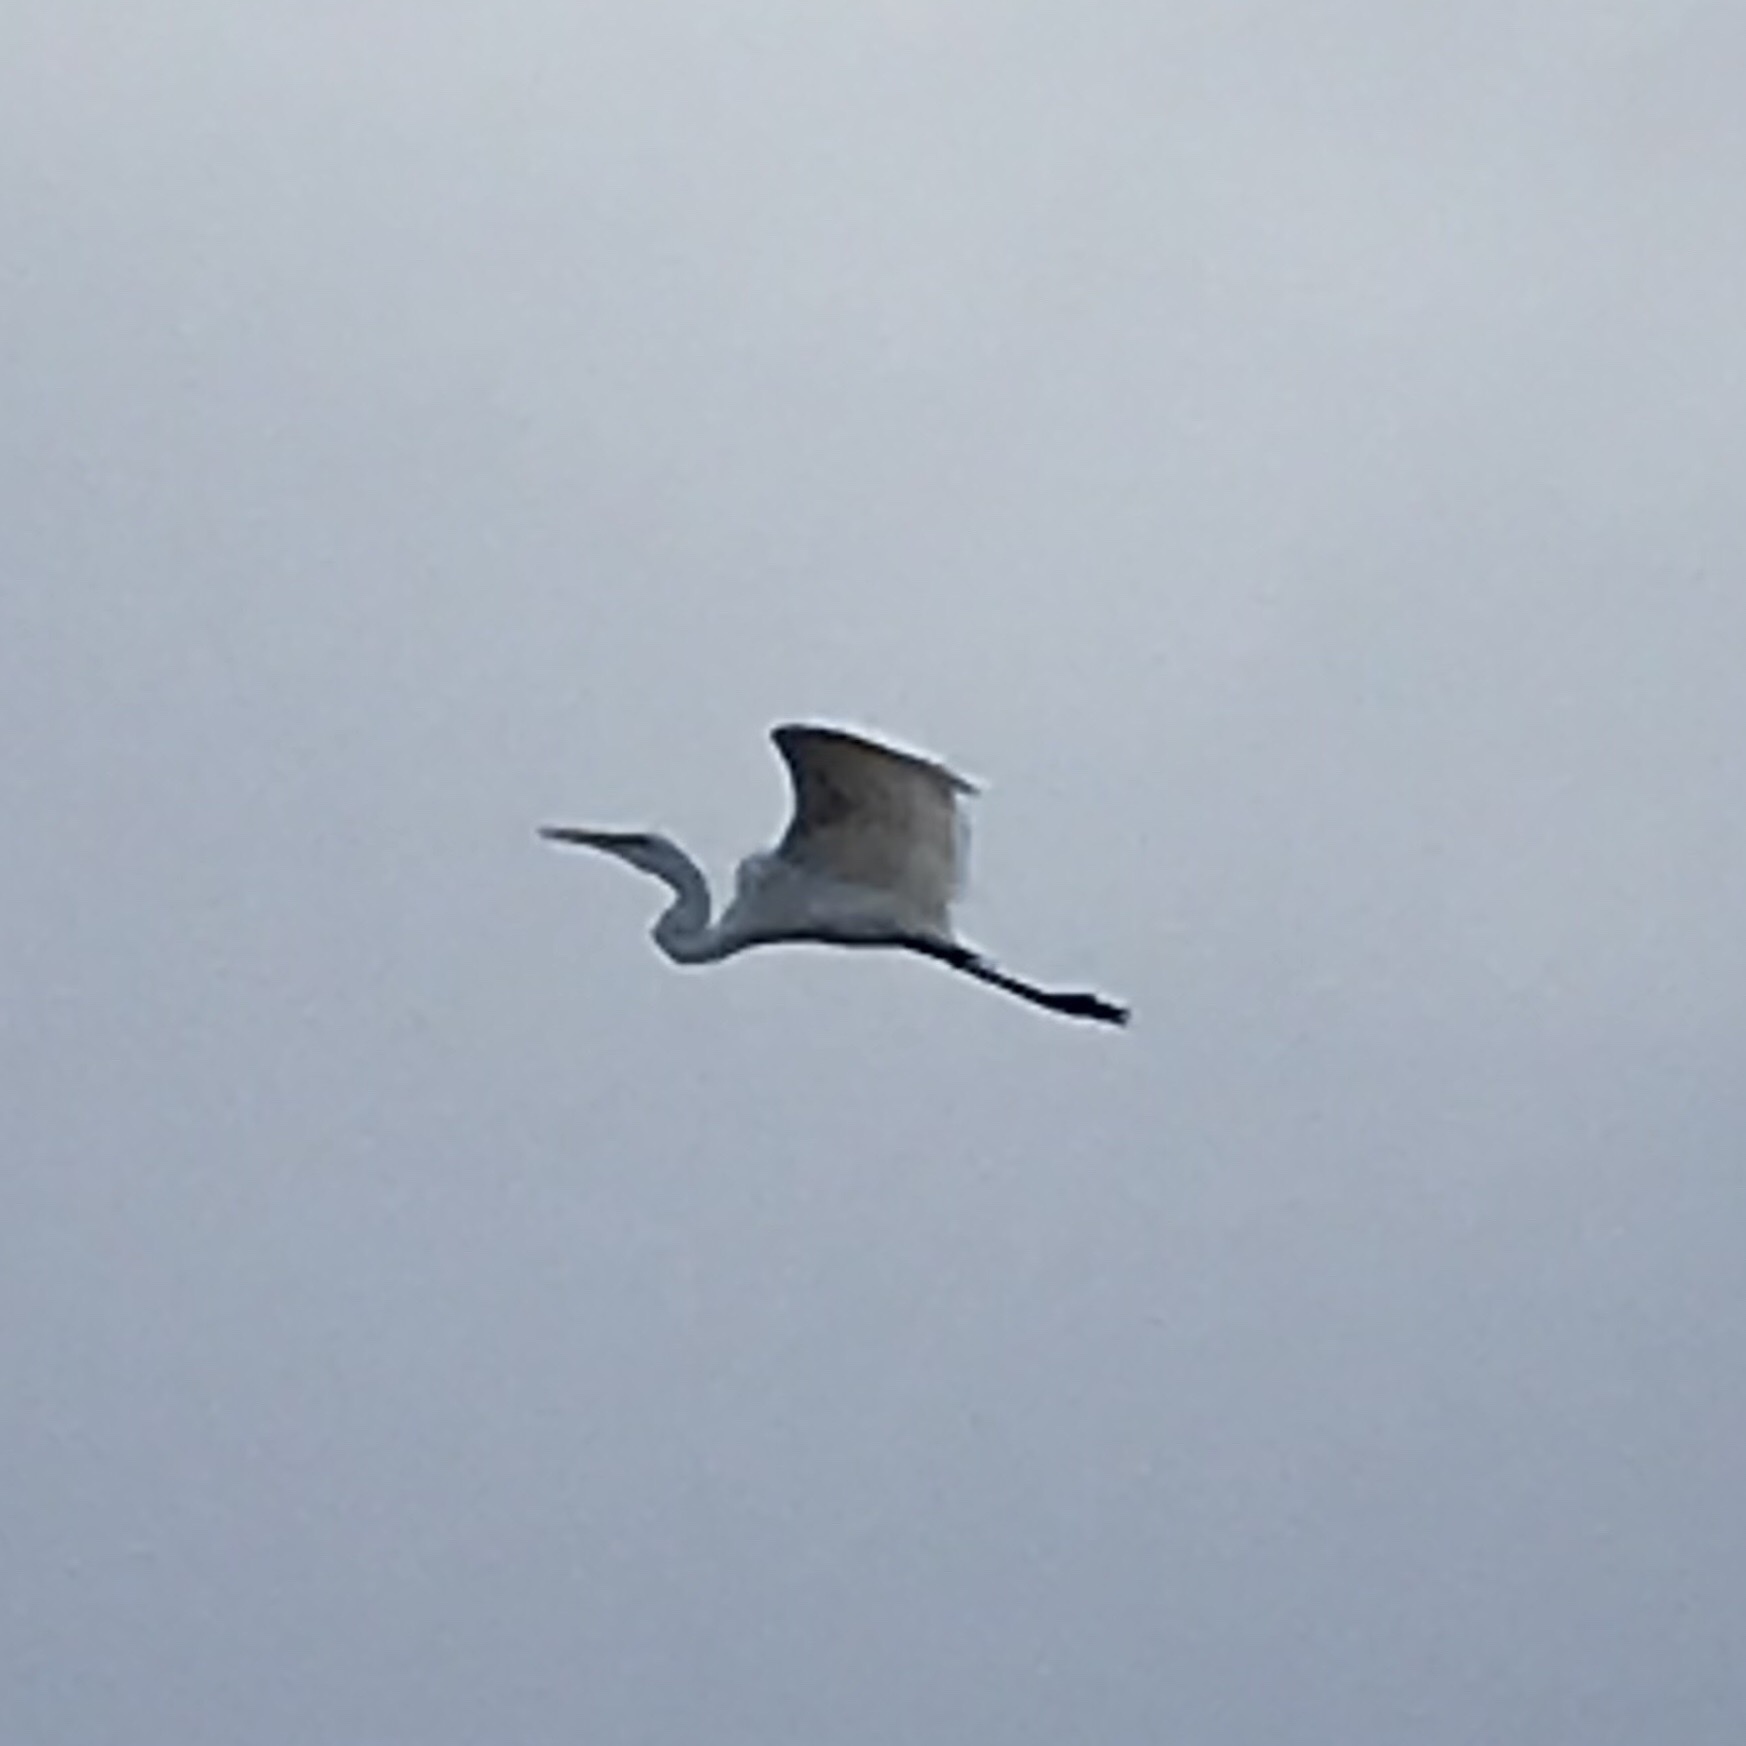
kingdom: Animalia
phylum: Chordata
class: Aves
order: Pelecaniformes
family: Ardeidae
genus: Ardea
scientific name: Ardea alba
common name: Great egret
